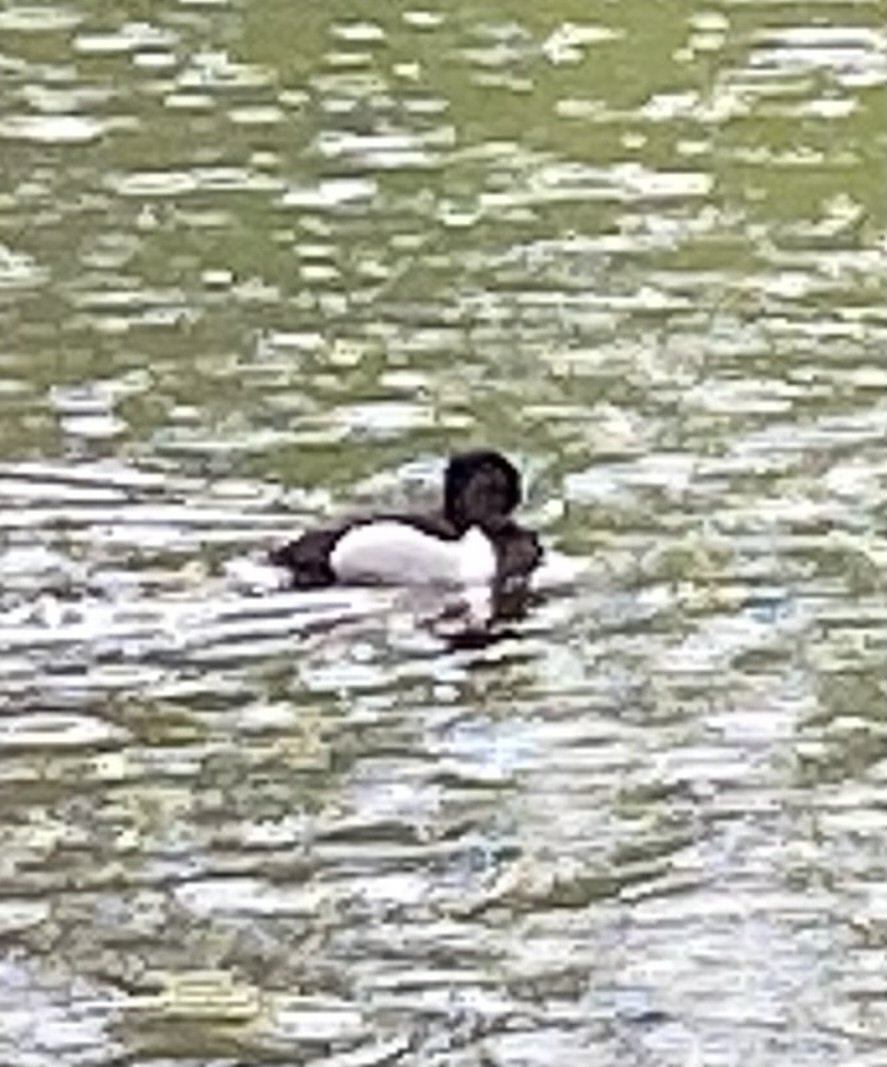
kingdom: Animalia
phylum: Chordata
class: Aves
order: Anseriformes
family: Anatidae
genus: Aythya
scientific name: Aythya collaris
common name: Ring-necked duck
